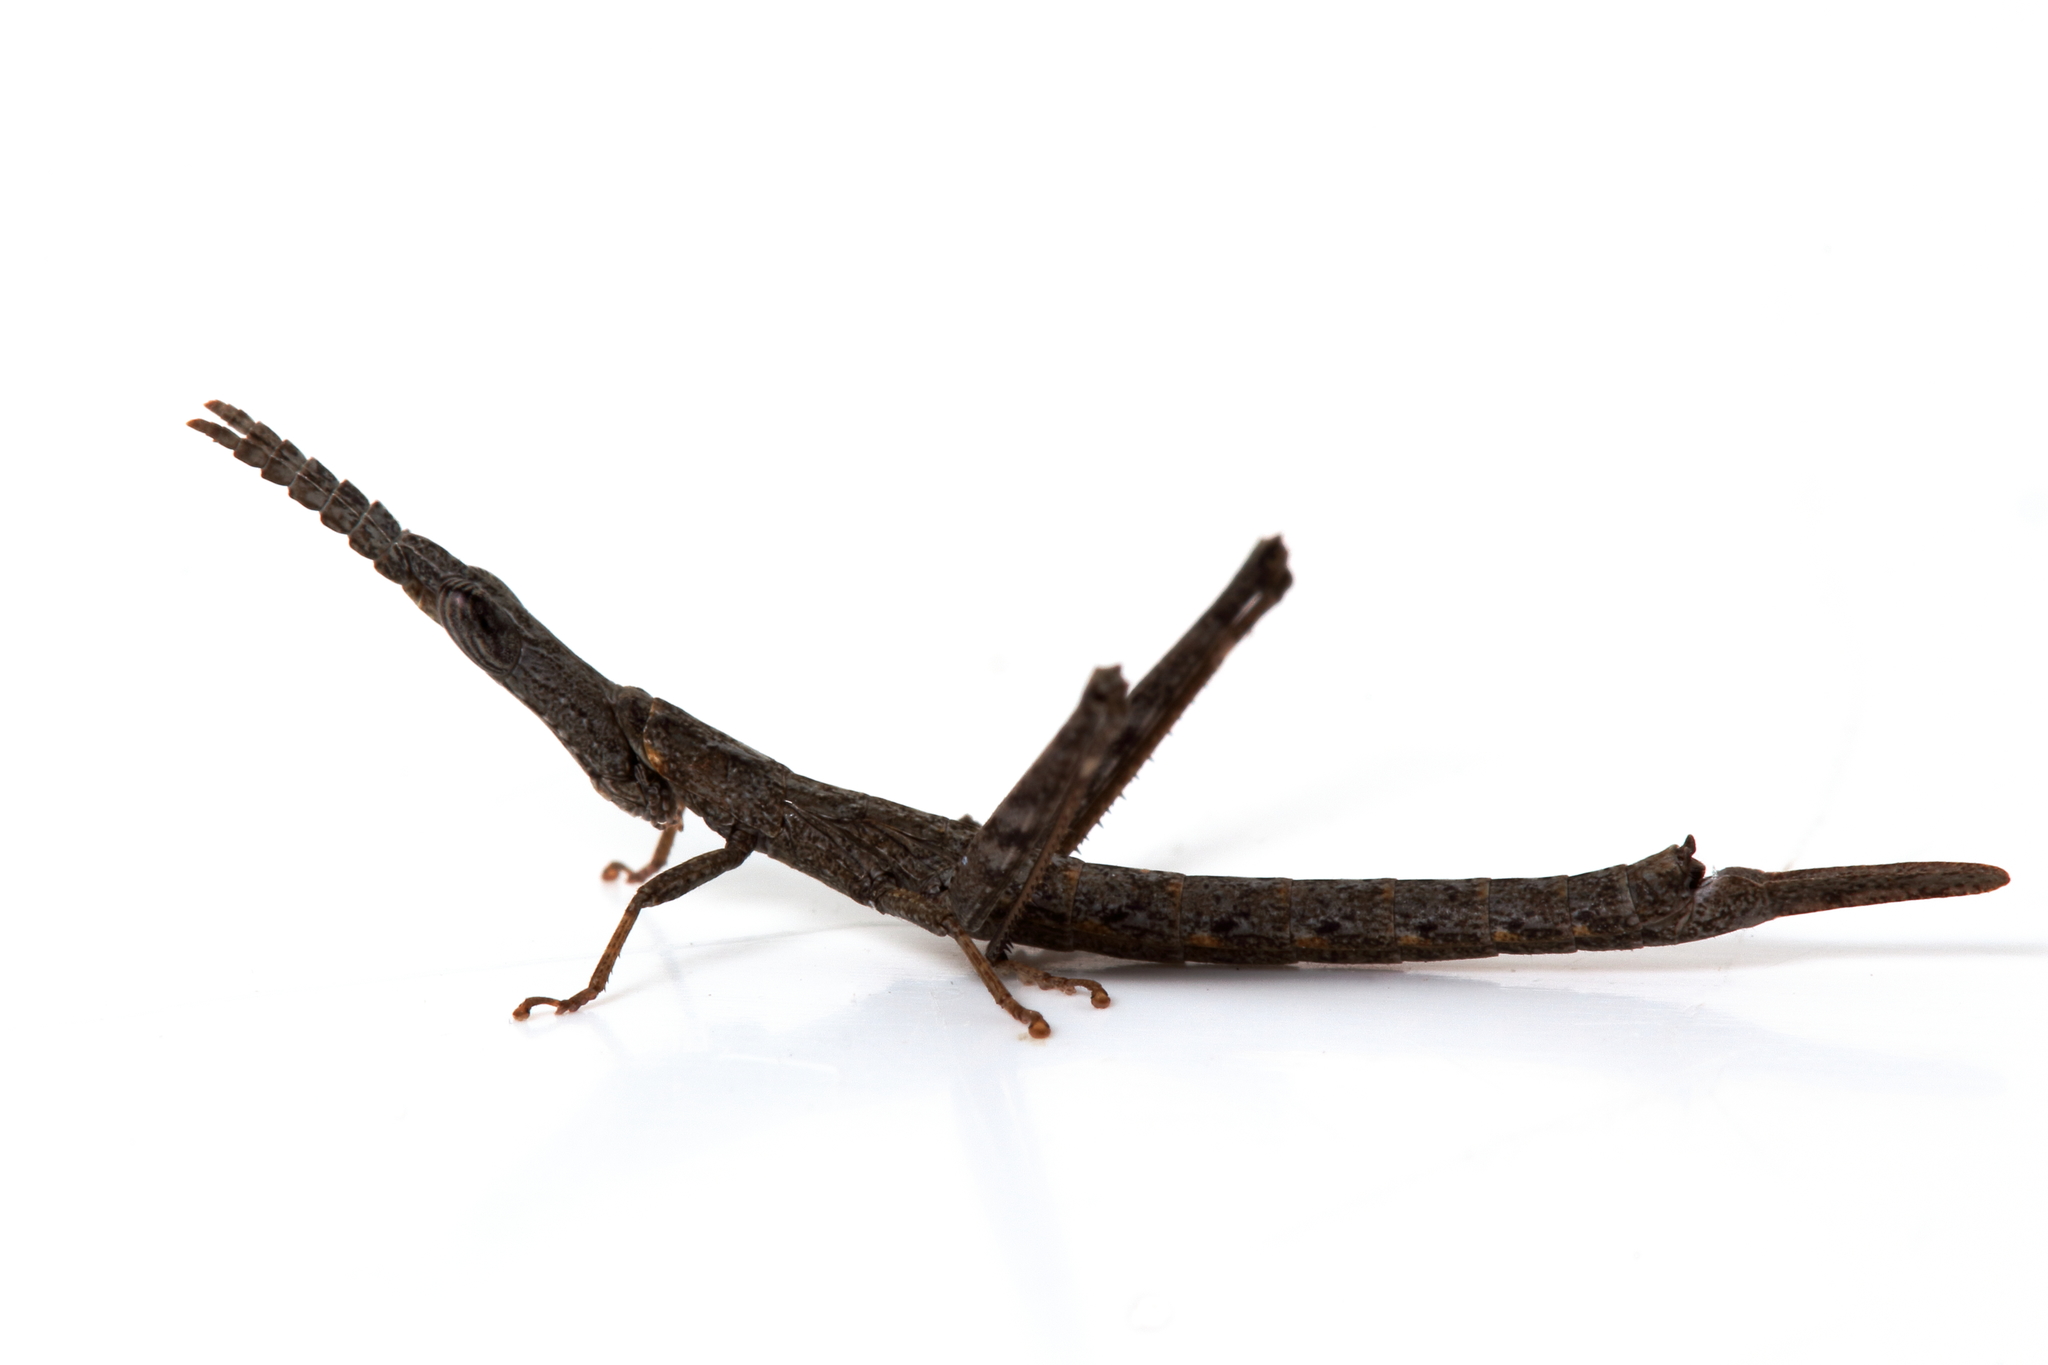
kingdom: Animalia
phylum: Arthropoda
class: Insecta
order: Orthoptera
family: Morabidae
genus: Vandiemenella
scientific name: Vandiemenella viatica
